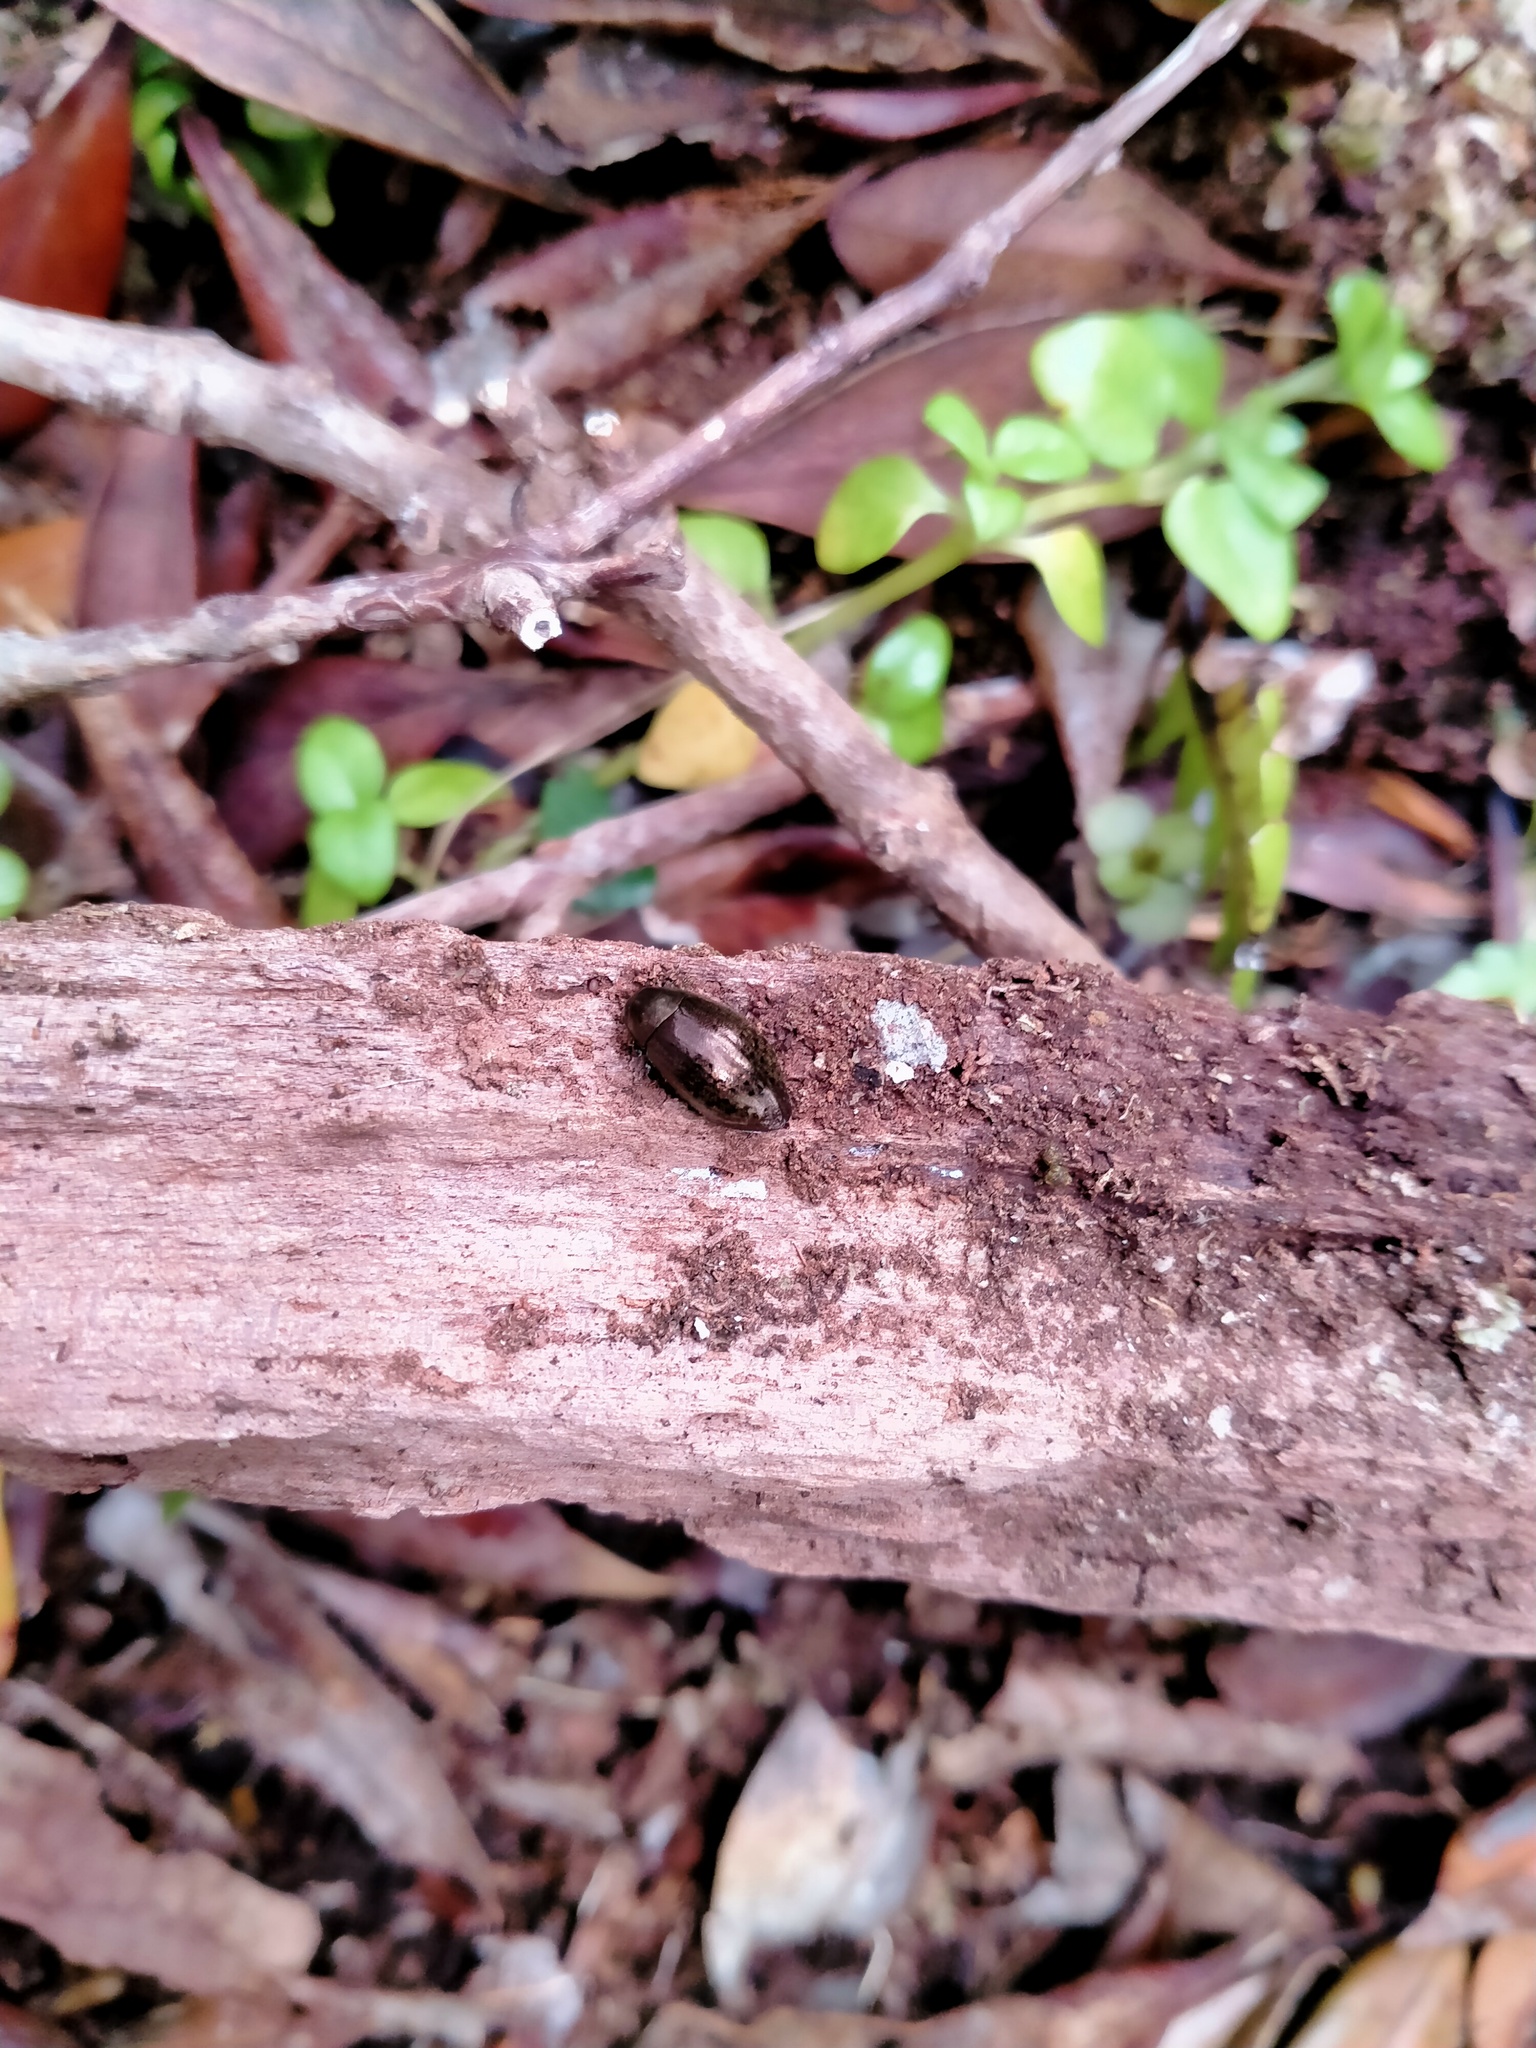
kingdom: Animalia
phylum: Arthropoda
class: Insecta
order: Coleoptera
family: Byrrhidae
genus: Epichorius
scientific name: Epichorius longulus
